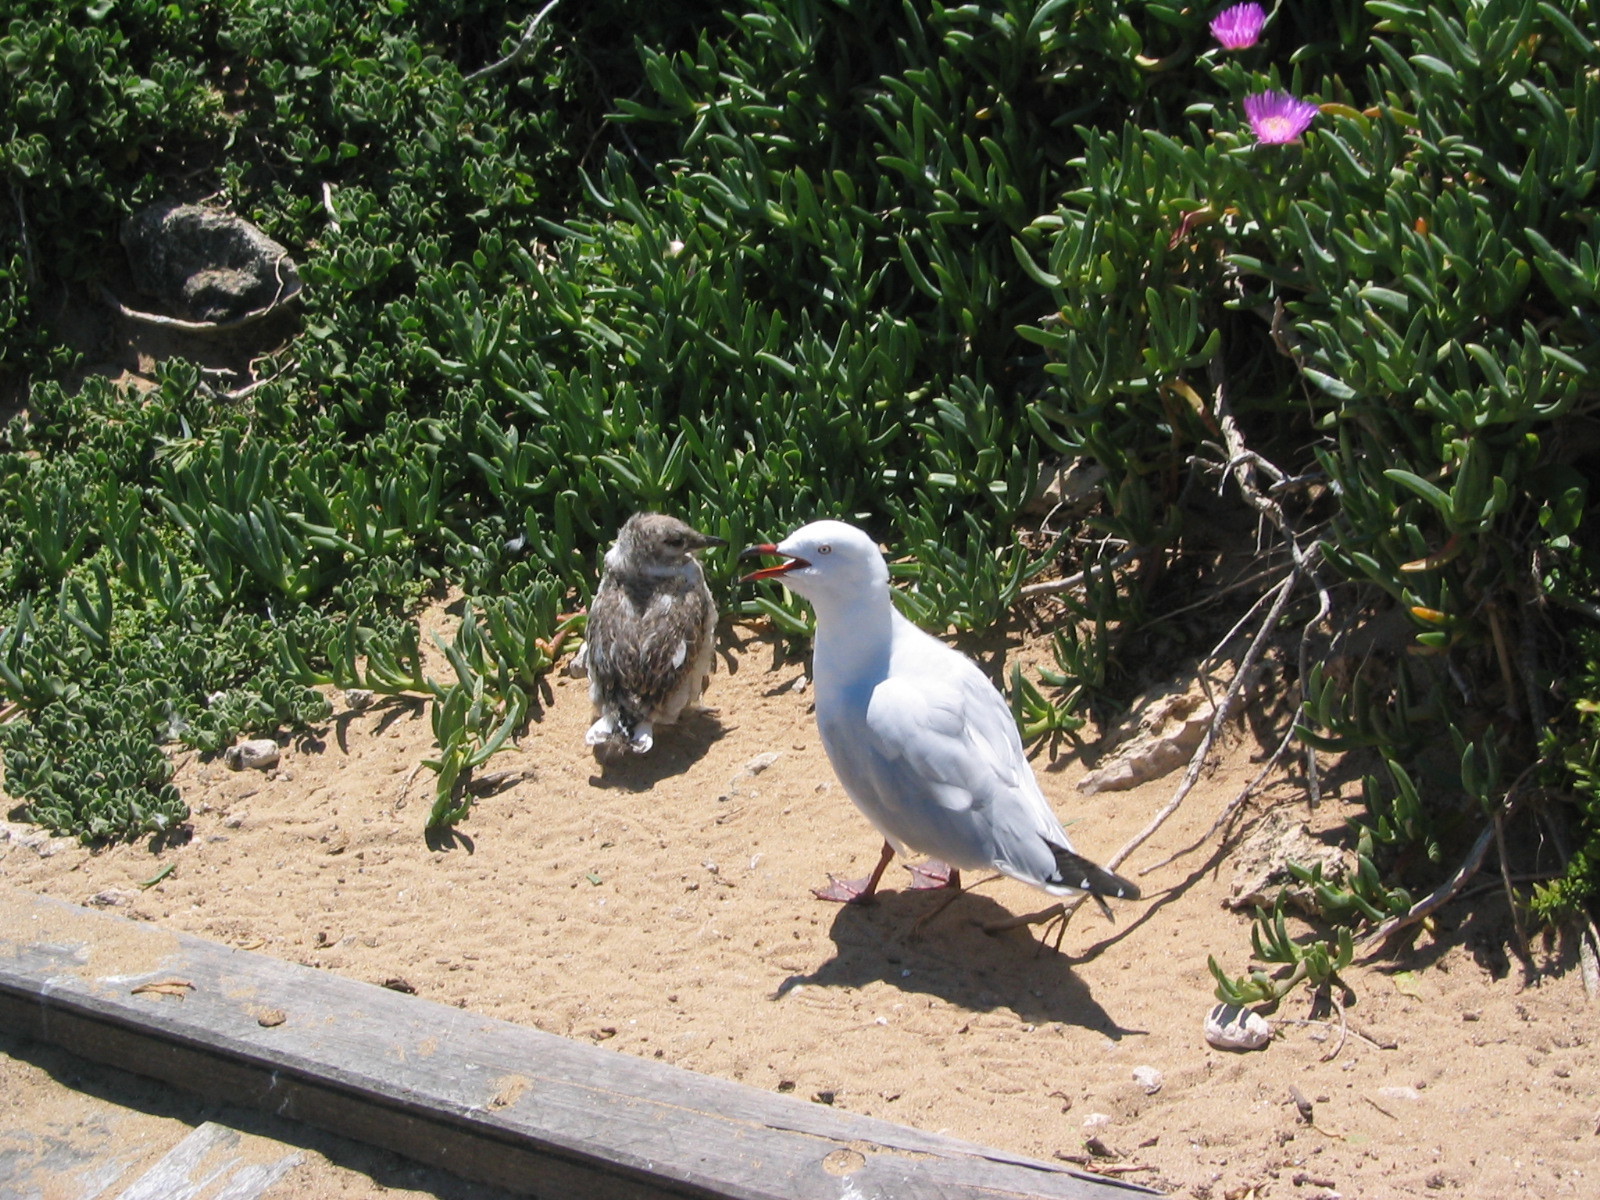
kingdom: Animalia
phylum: Chordata
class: Aves
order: Charadriiformes
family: Laridae
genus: Chroicocephalus
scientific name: Chroicocephalus novaehollandiae
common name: Silver gull
